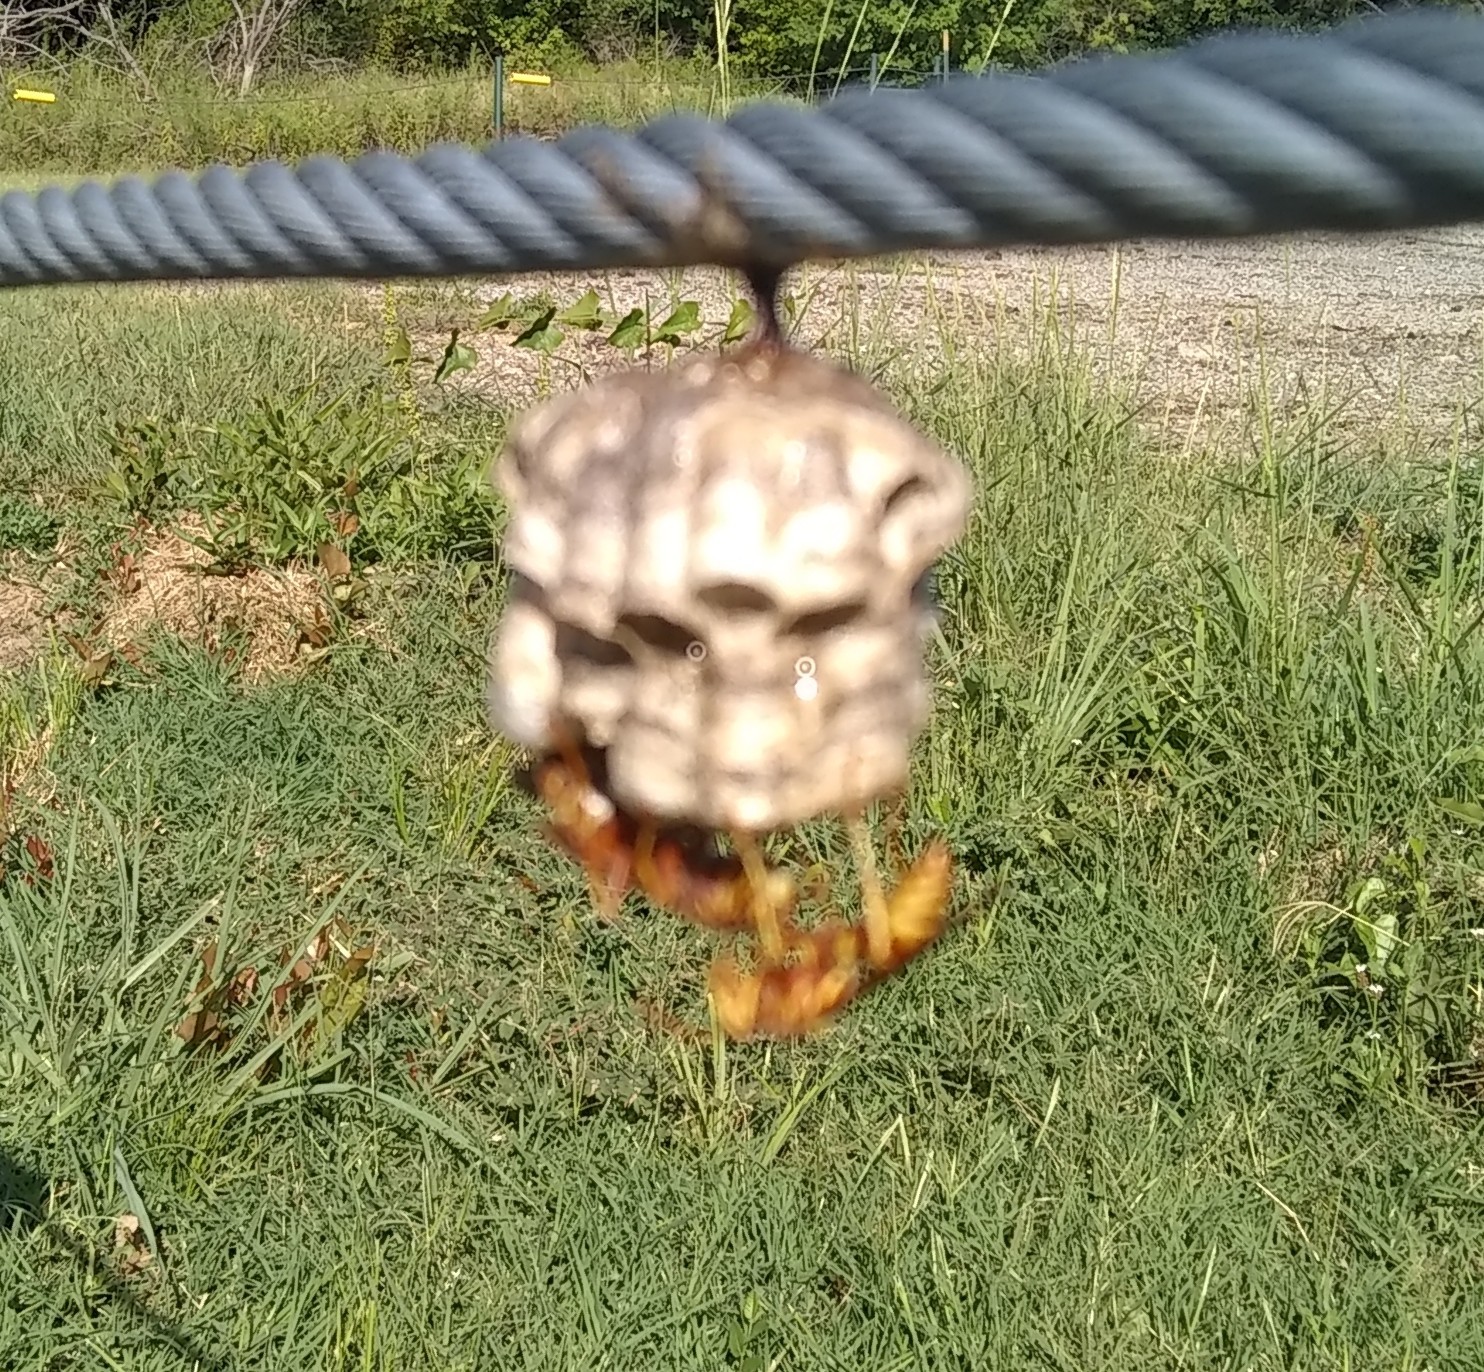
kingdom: Animalia
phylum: Arthropoda
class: Insecta
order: Hymenoptera
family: Vespidae
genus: Fuscopolistes
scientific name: Fuscopolistes
